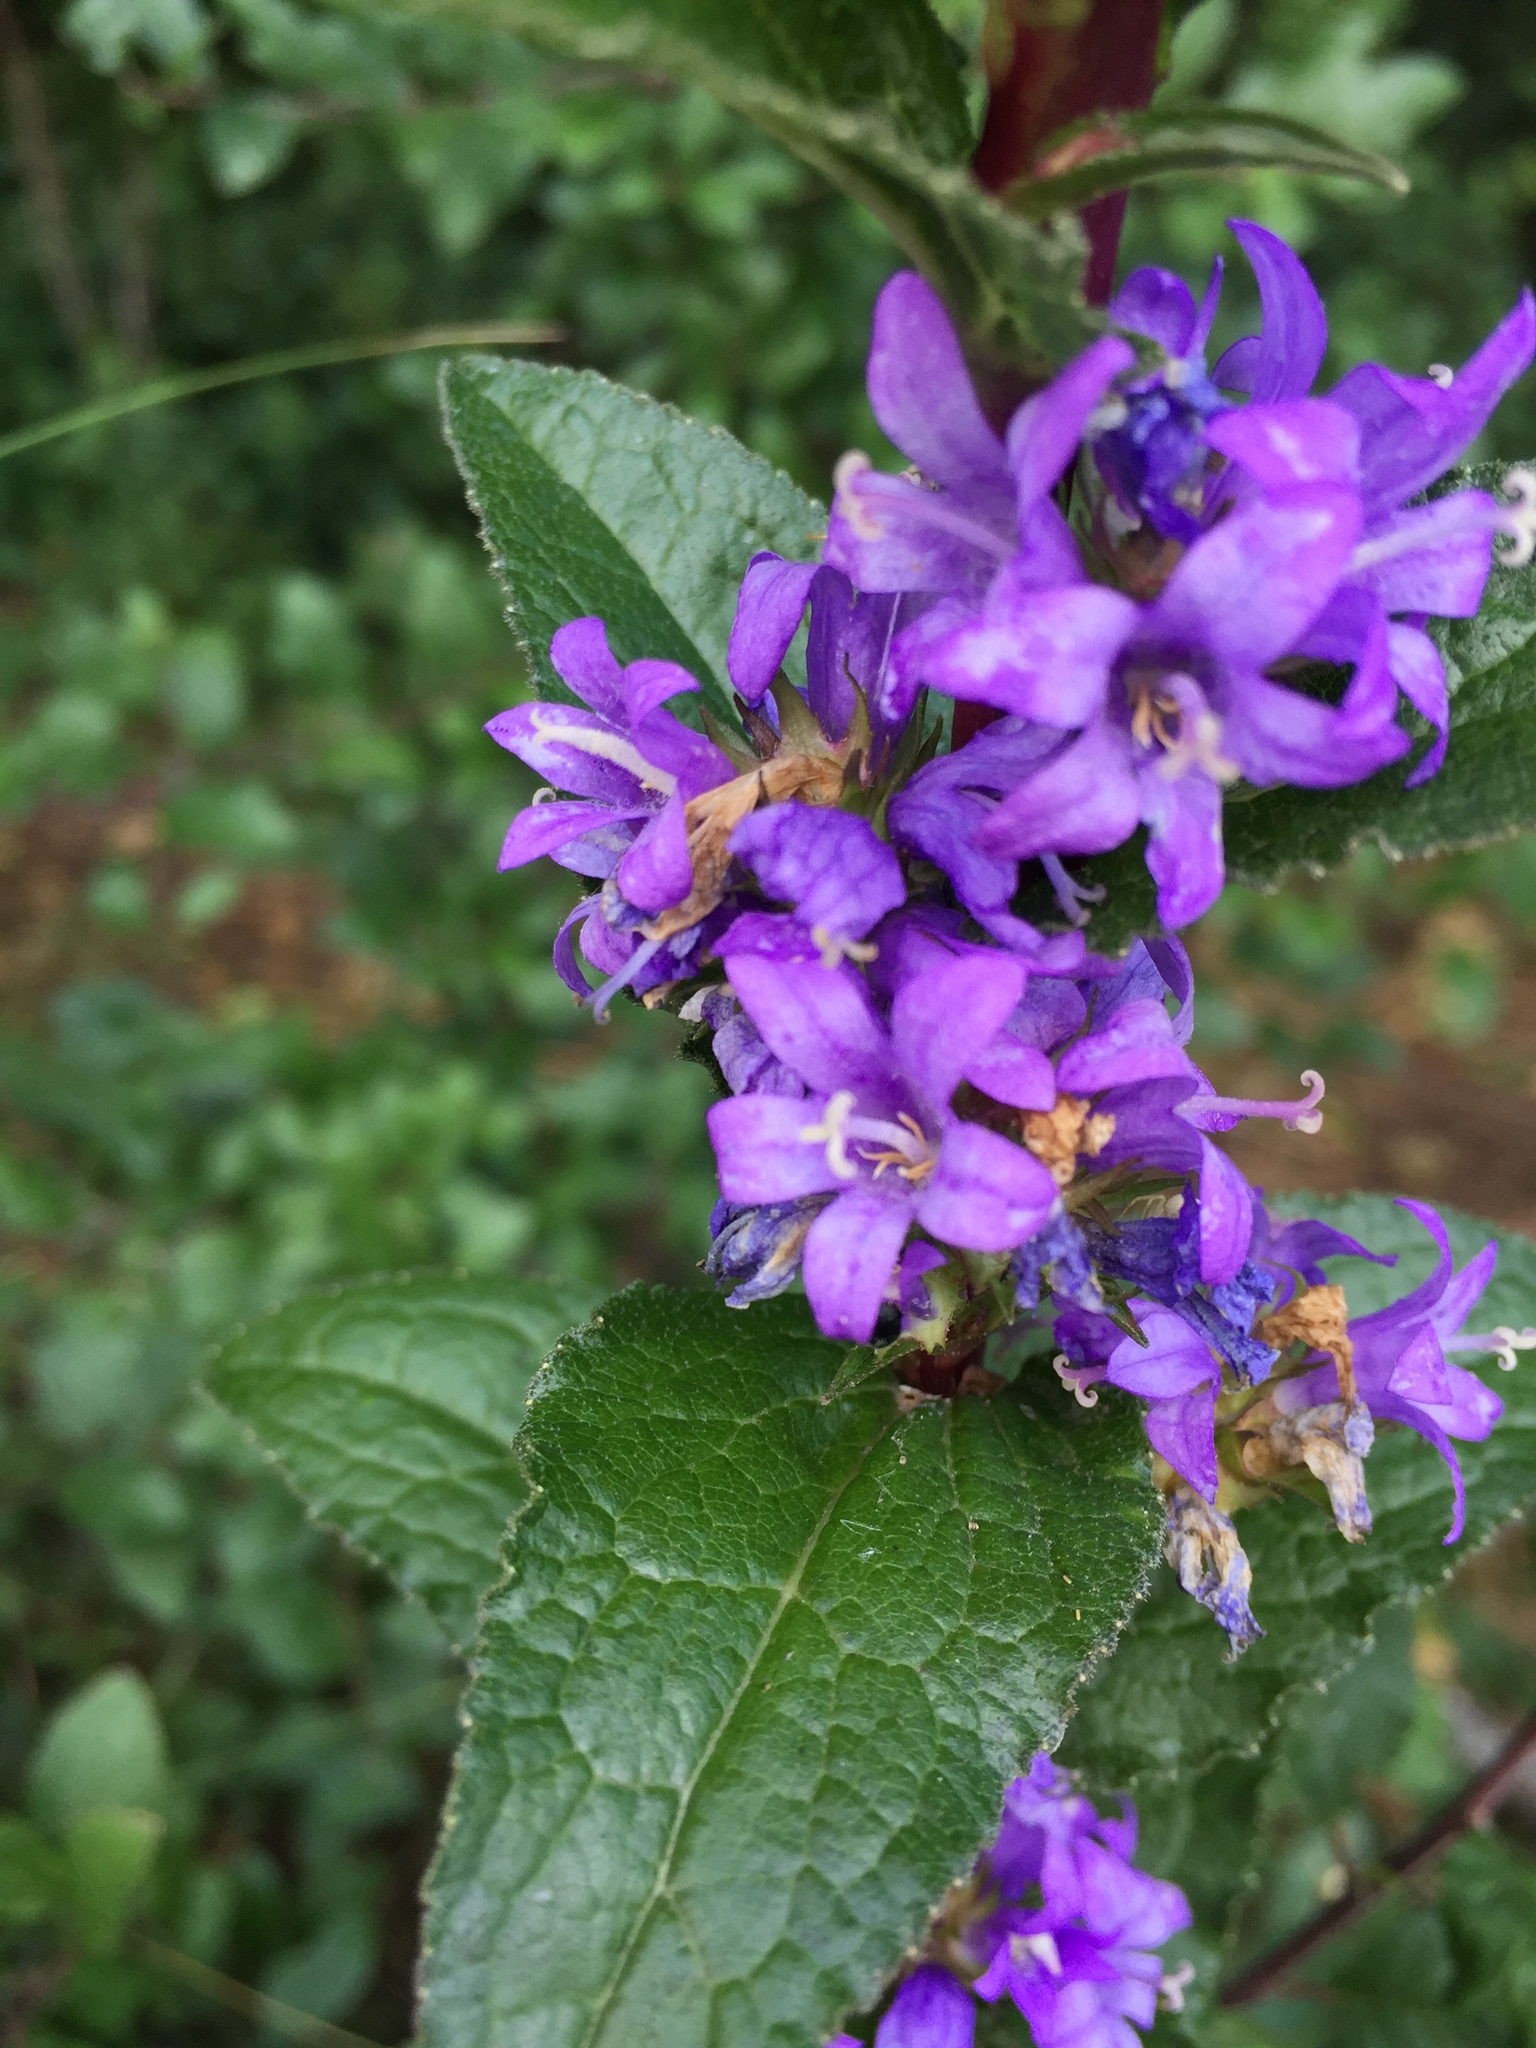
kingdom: Plantae
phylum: Tracheophyta
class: Magnoliopsida
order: Asterales
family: Campanulaceae
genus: Campanula
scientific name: Campanula glomerata
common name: Clustered bellflower
